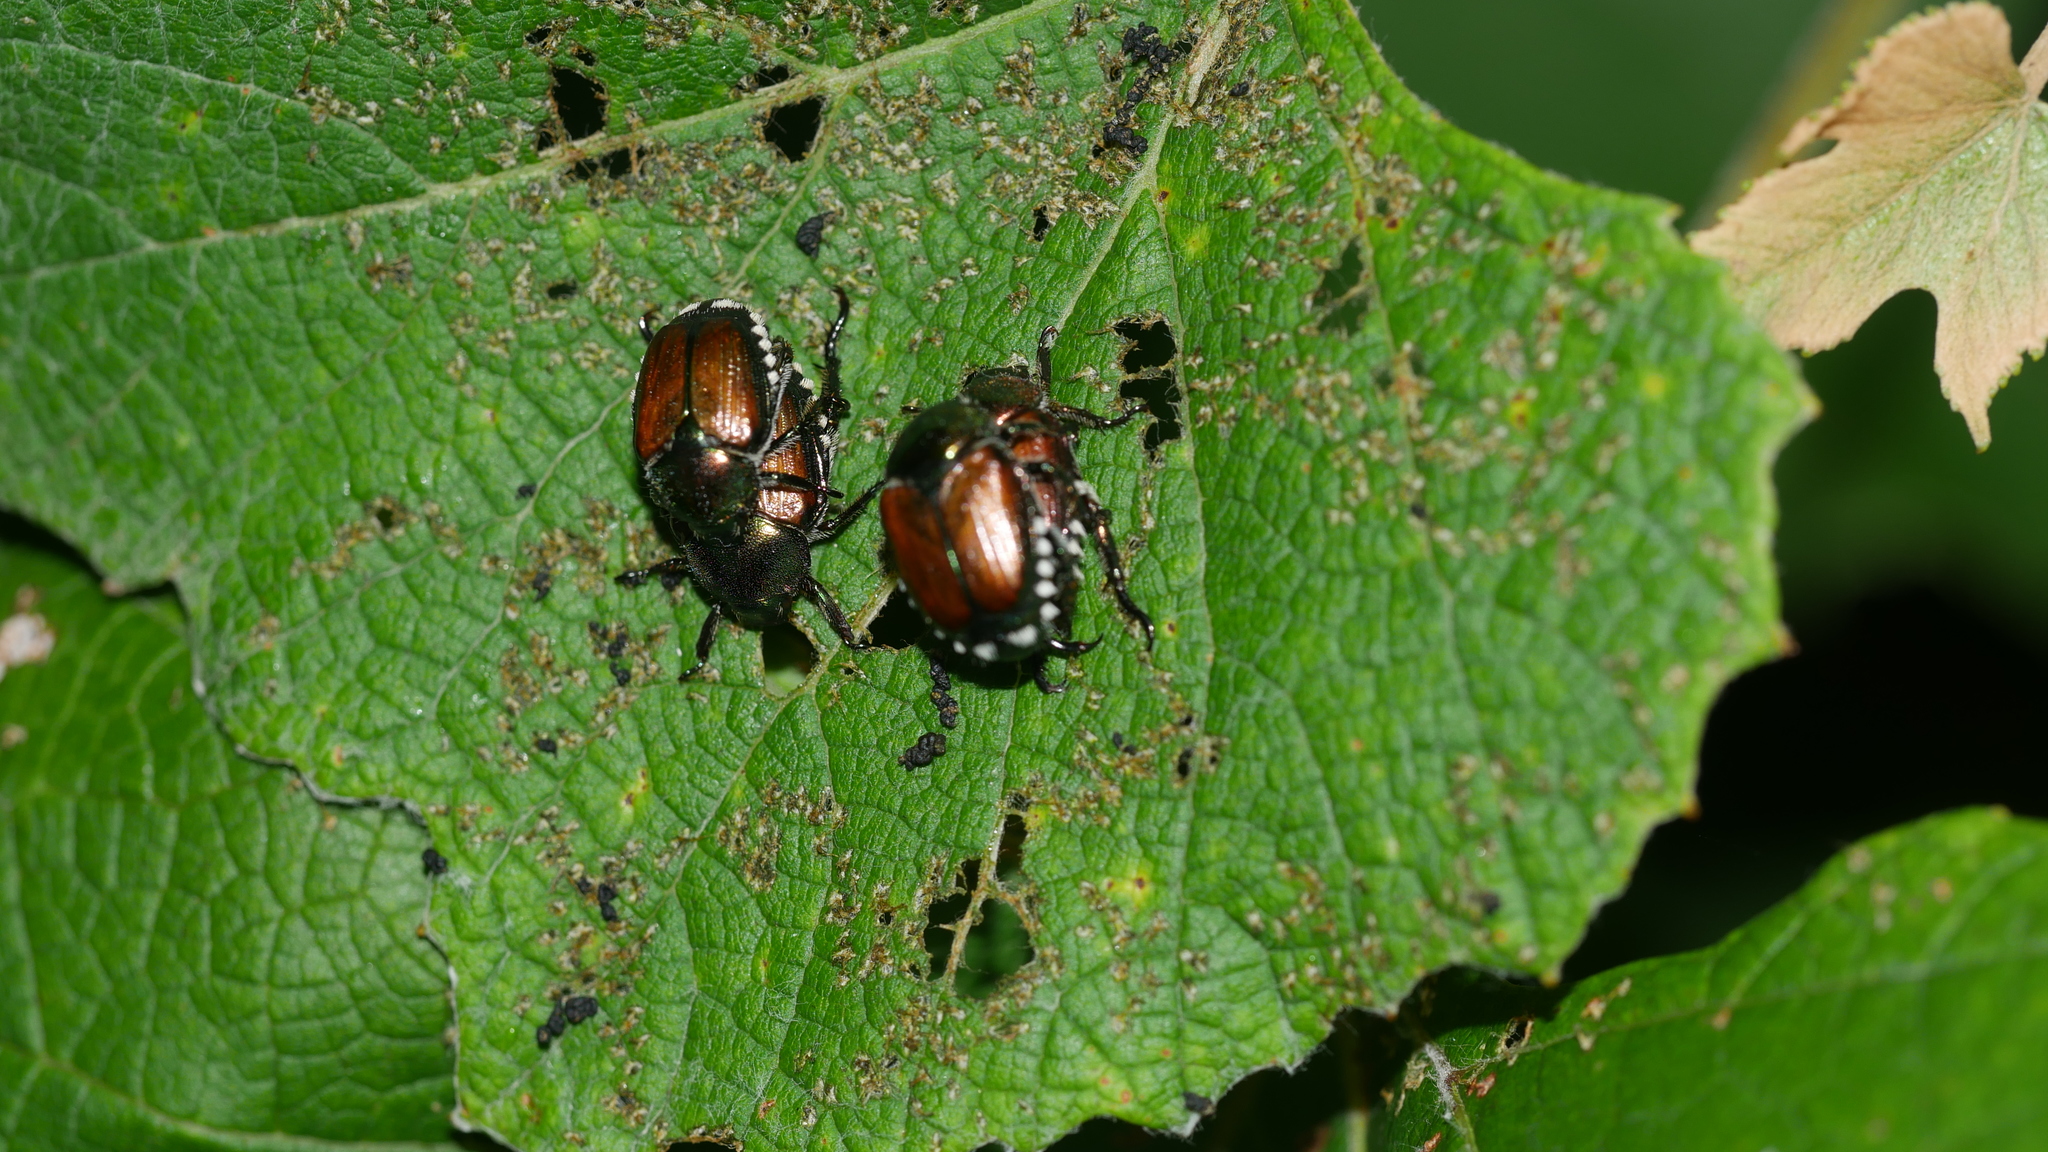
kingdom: Animalia
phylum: Arthropoda
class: Insecta
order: Coleoptera
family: Scarabaeidae
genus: Popillia
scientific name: Popillia japonica
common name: Japanese beetle
